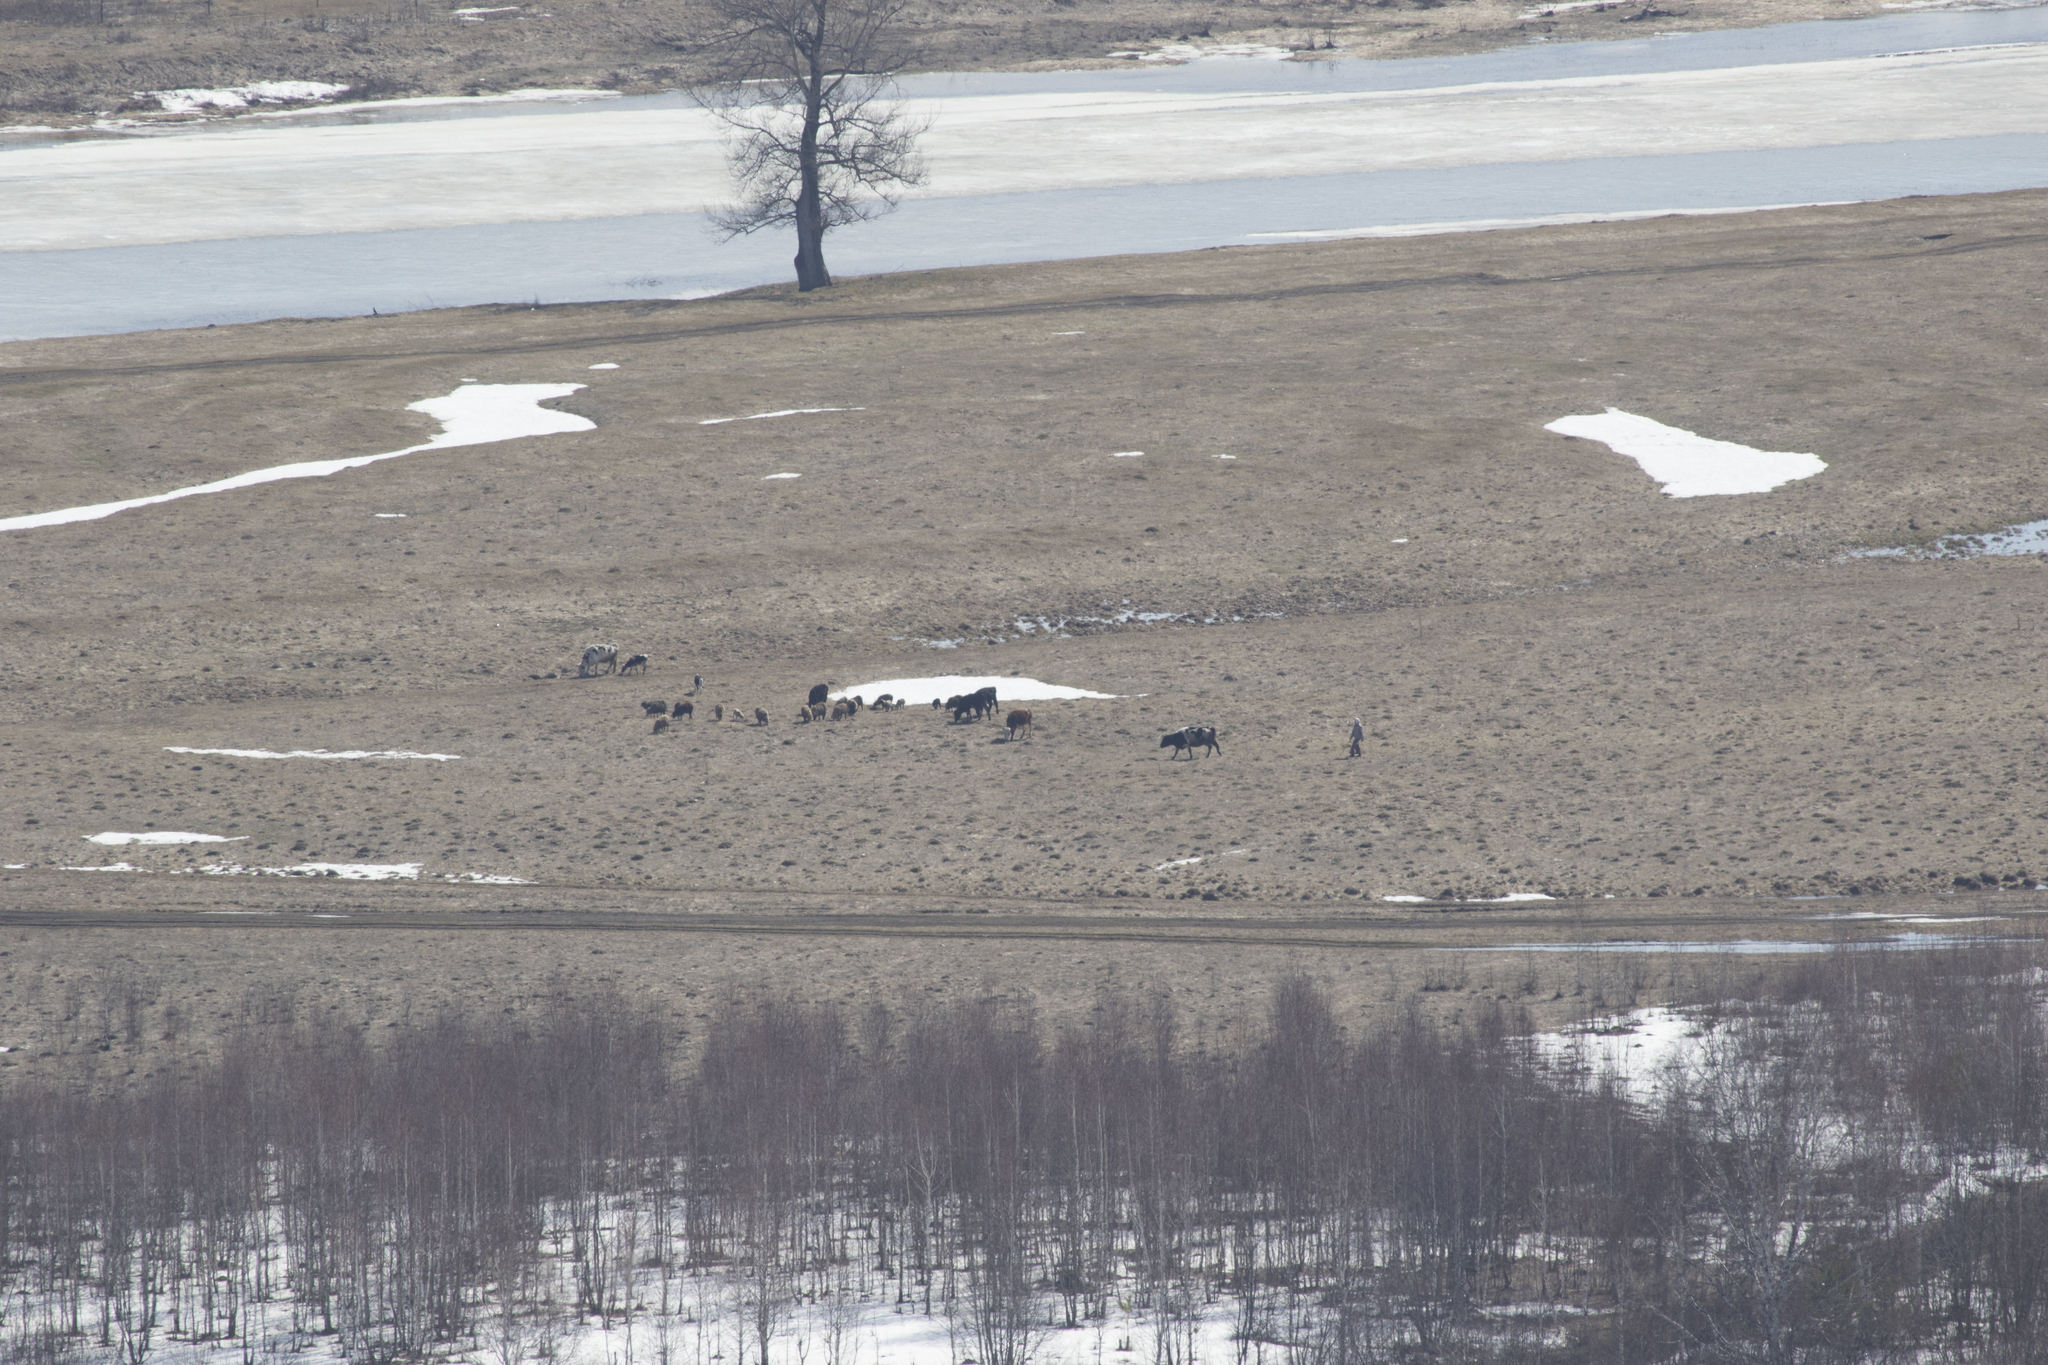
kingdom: Animalia
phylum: Chordata
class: Mammalia
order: Artiodactyla
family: Bovidae
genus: Bos
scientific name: Bos taurus
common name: Domesticated cattle
